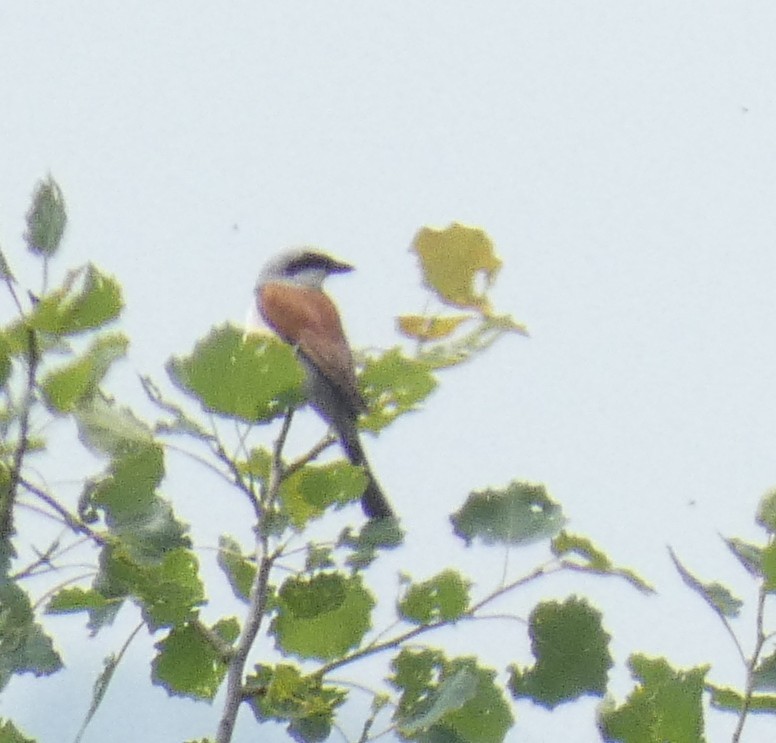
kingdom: Animalia
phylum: Chordata
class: Aves
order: Passeriformes
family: Laniidae
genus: Lanius
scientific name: Lanius collurio
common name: Red-backed shrike
